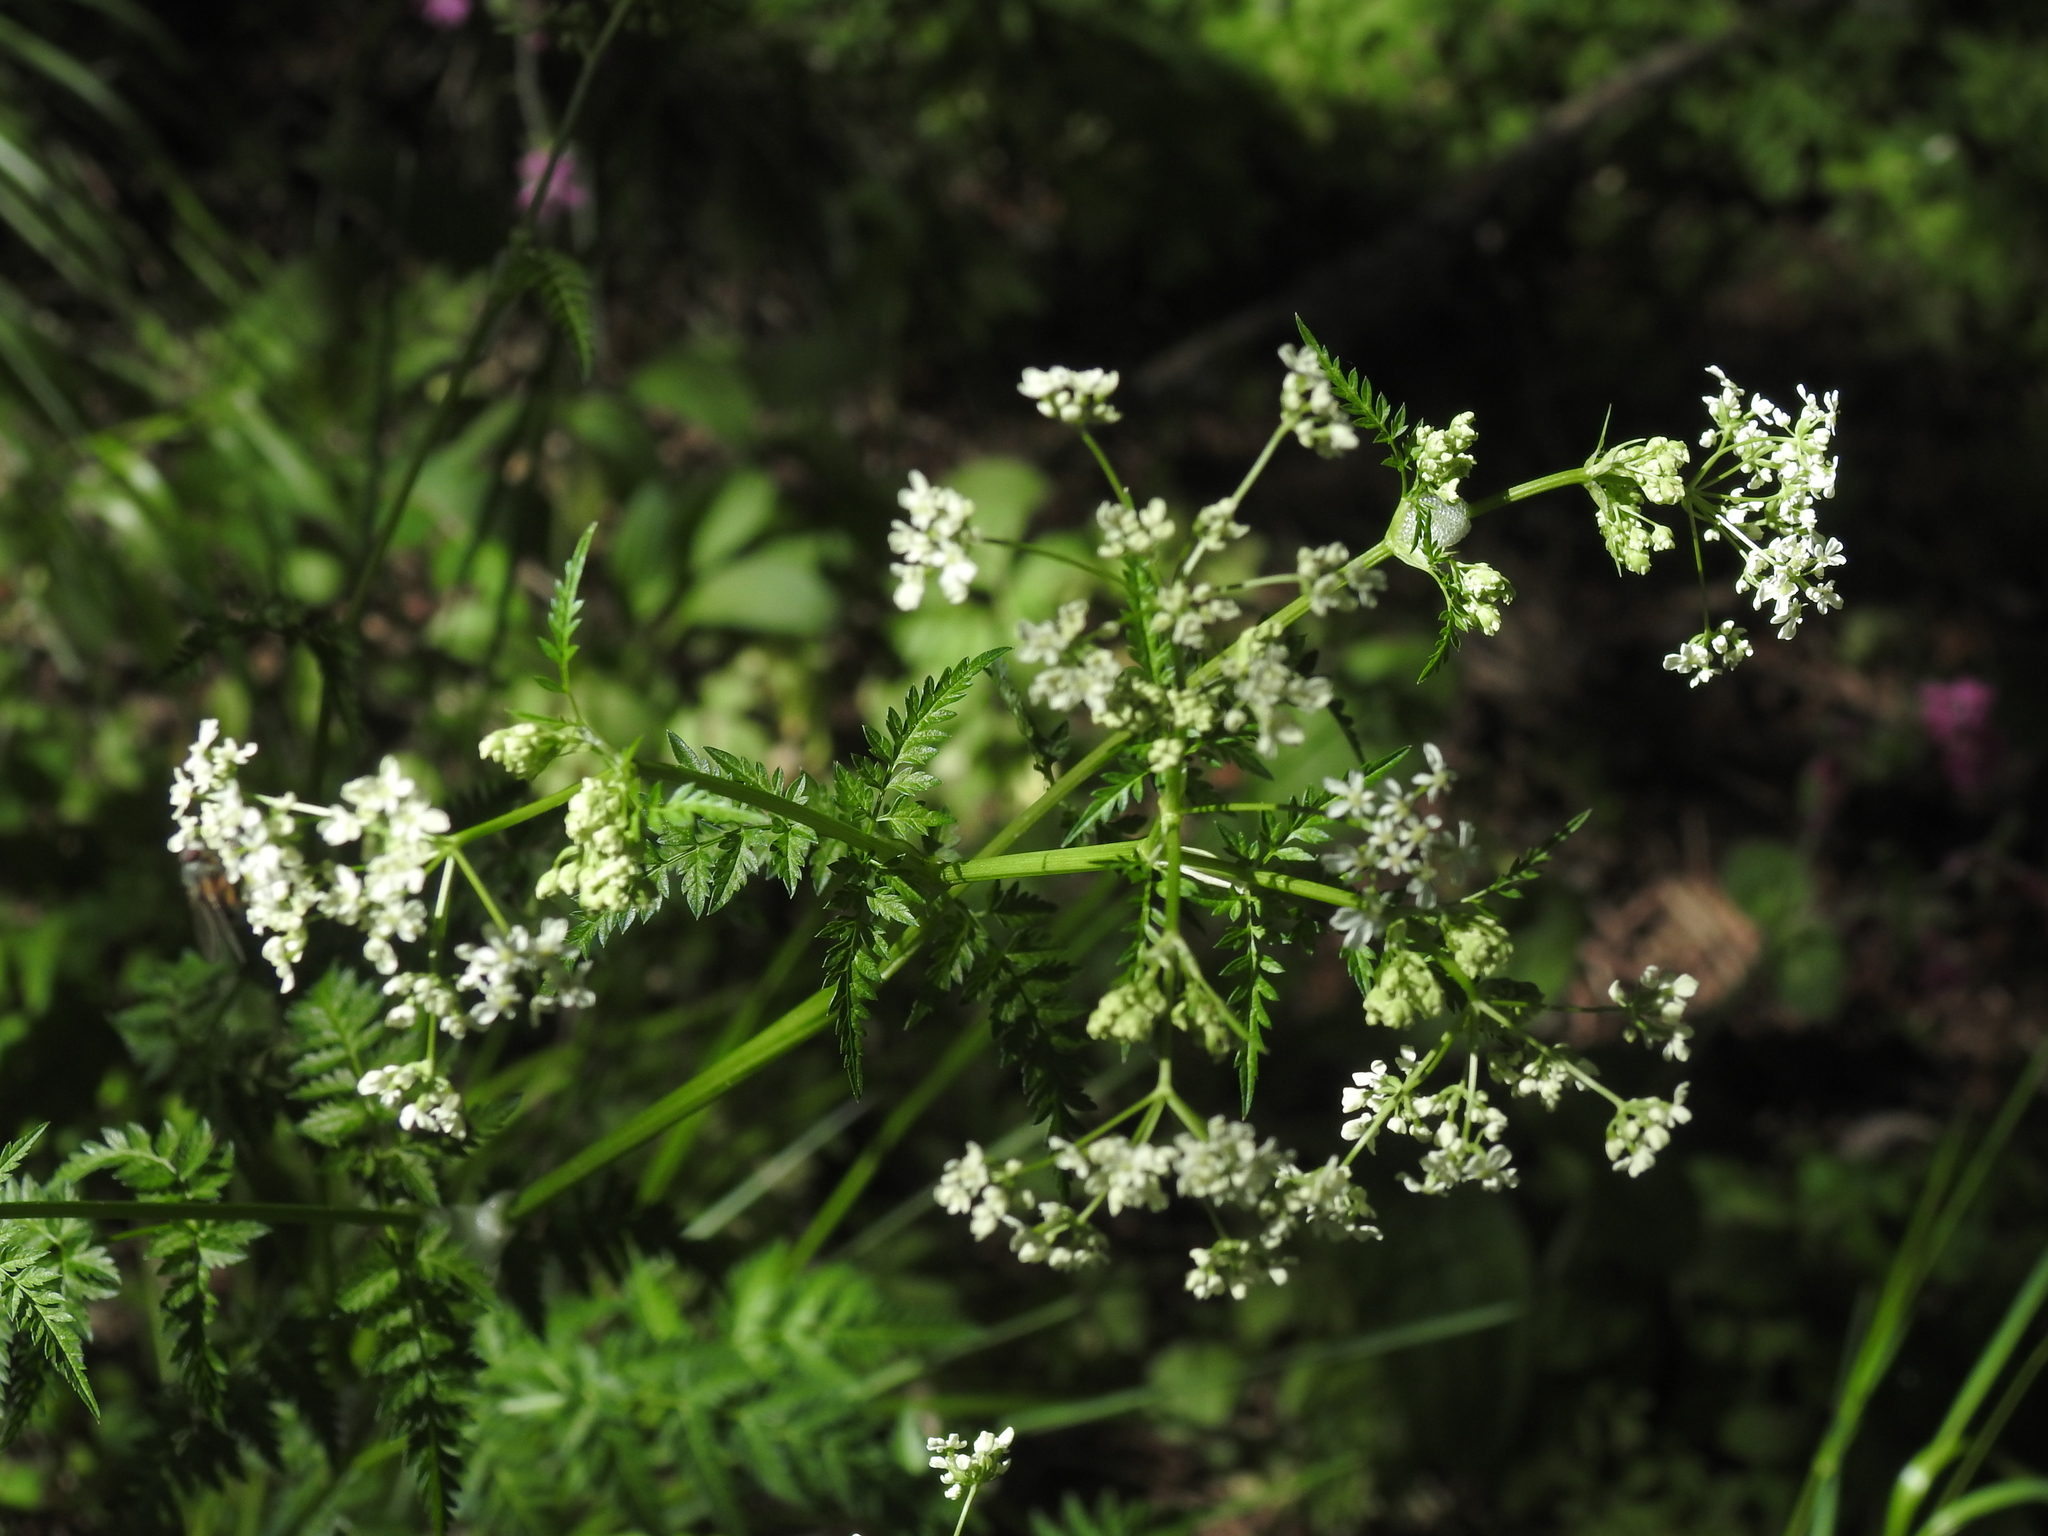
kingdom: Plantae
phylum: Tracheophyta
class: Magnoliopsida
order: Apiales
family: Apiaceae
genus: Anthriscus
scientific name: Anthriscus sylvestris
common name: Cow parsley
